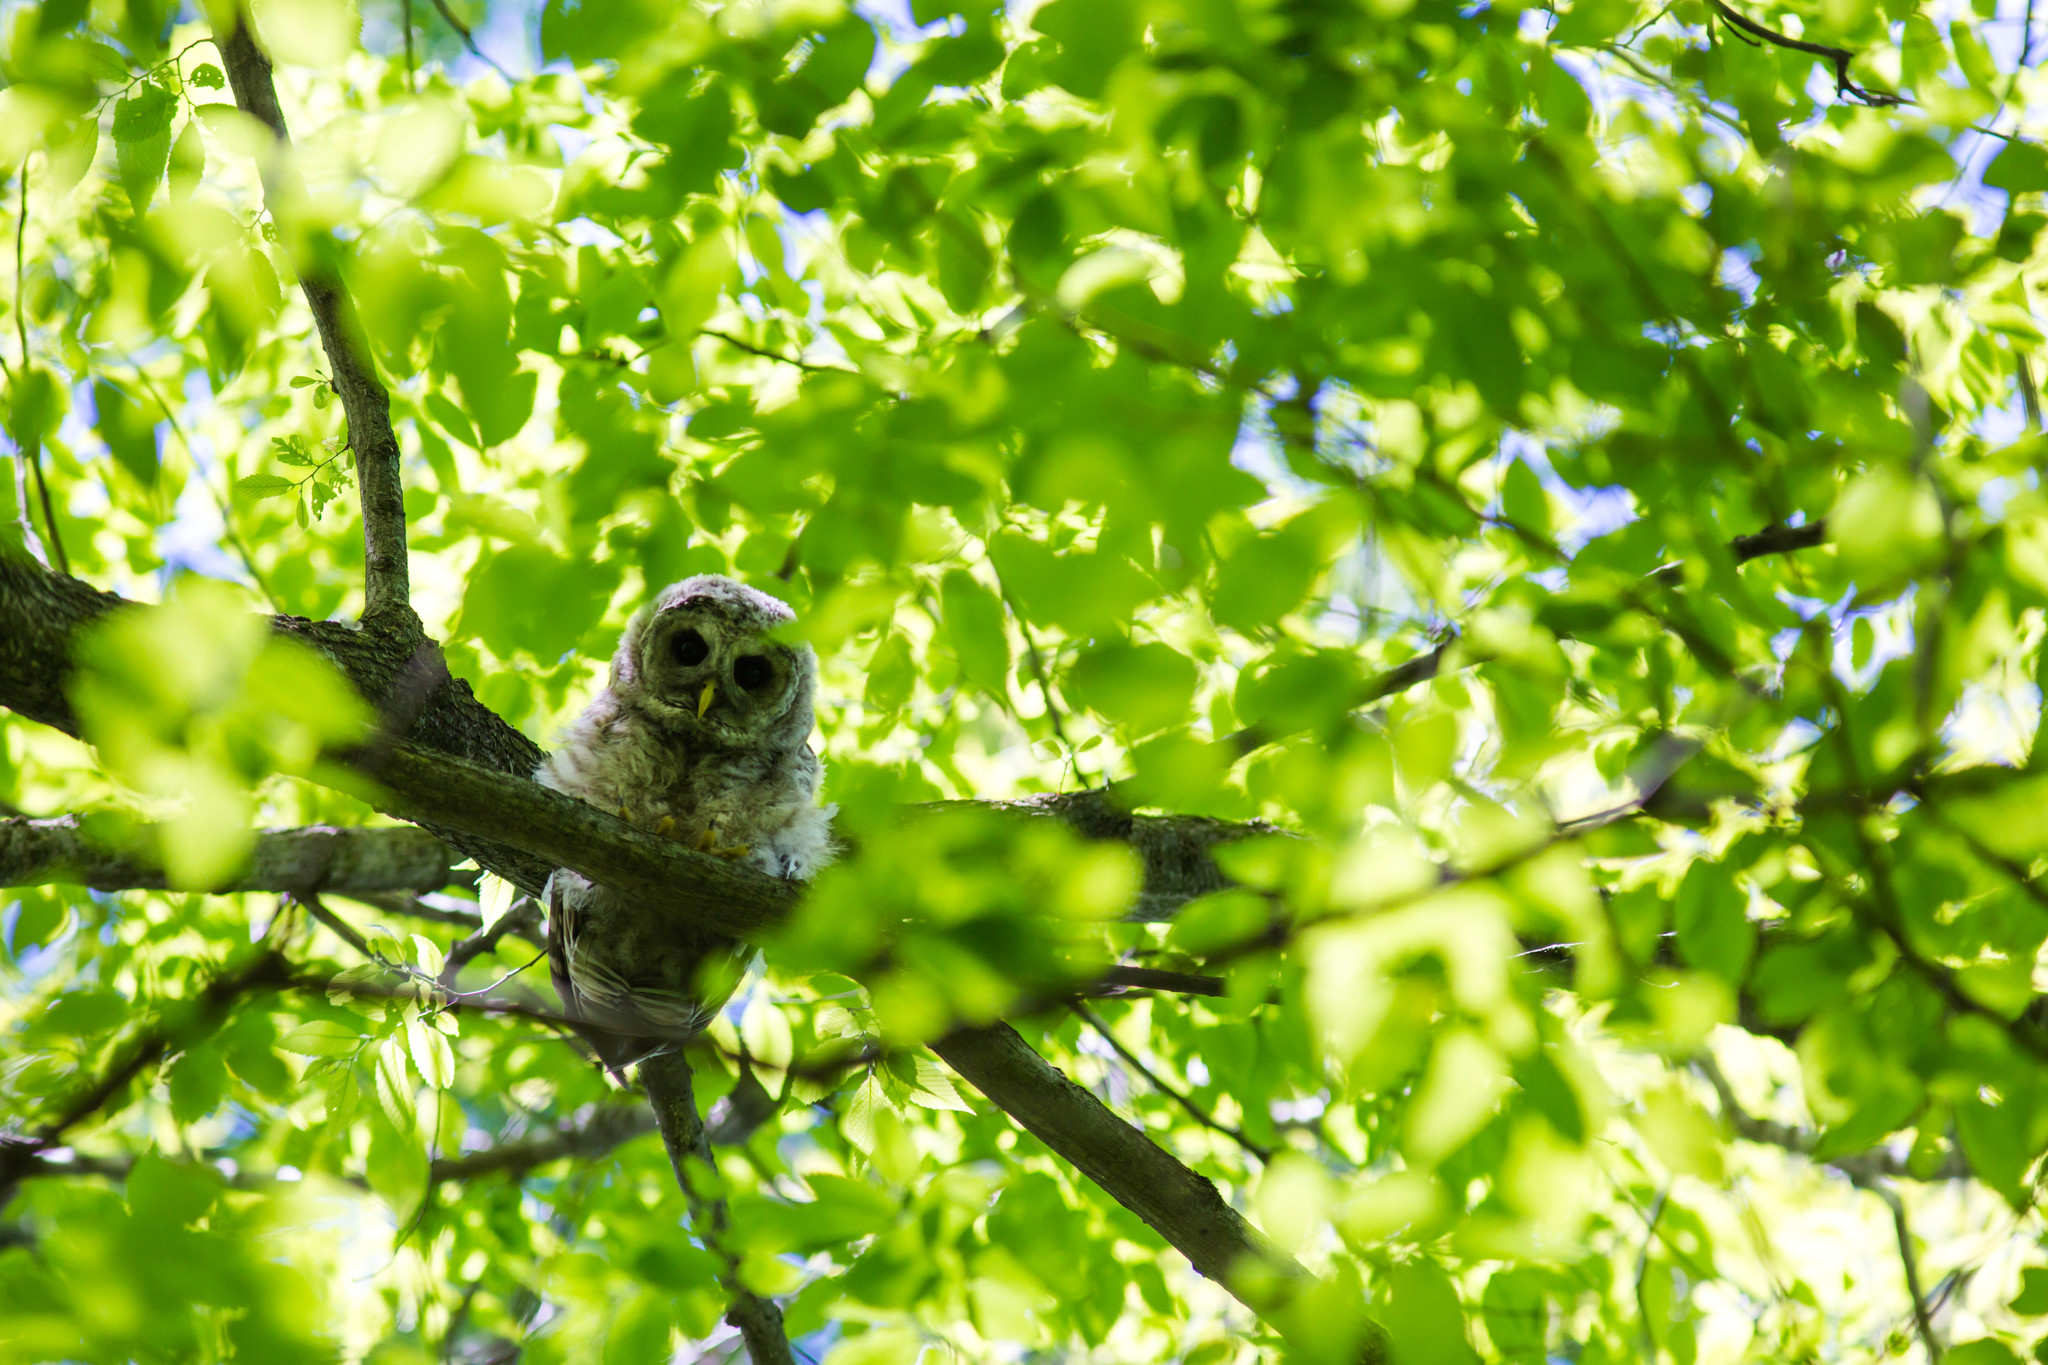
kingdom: Animalia
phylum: Chordata
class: Aves
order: Strigiformes
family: Strigidae
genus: Strix
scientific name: Strix varia
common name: Barred owl
